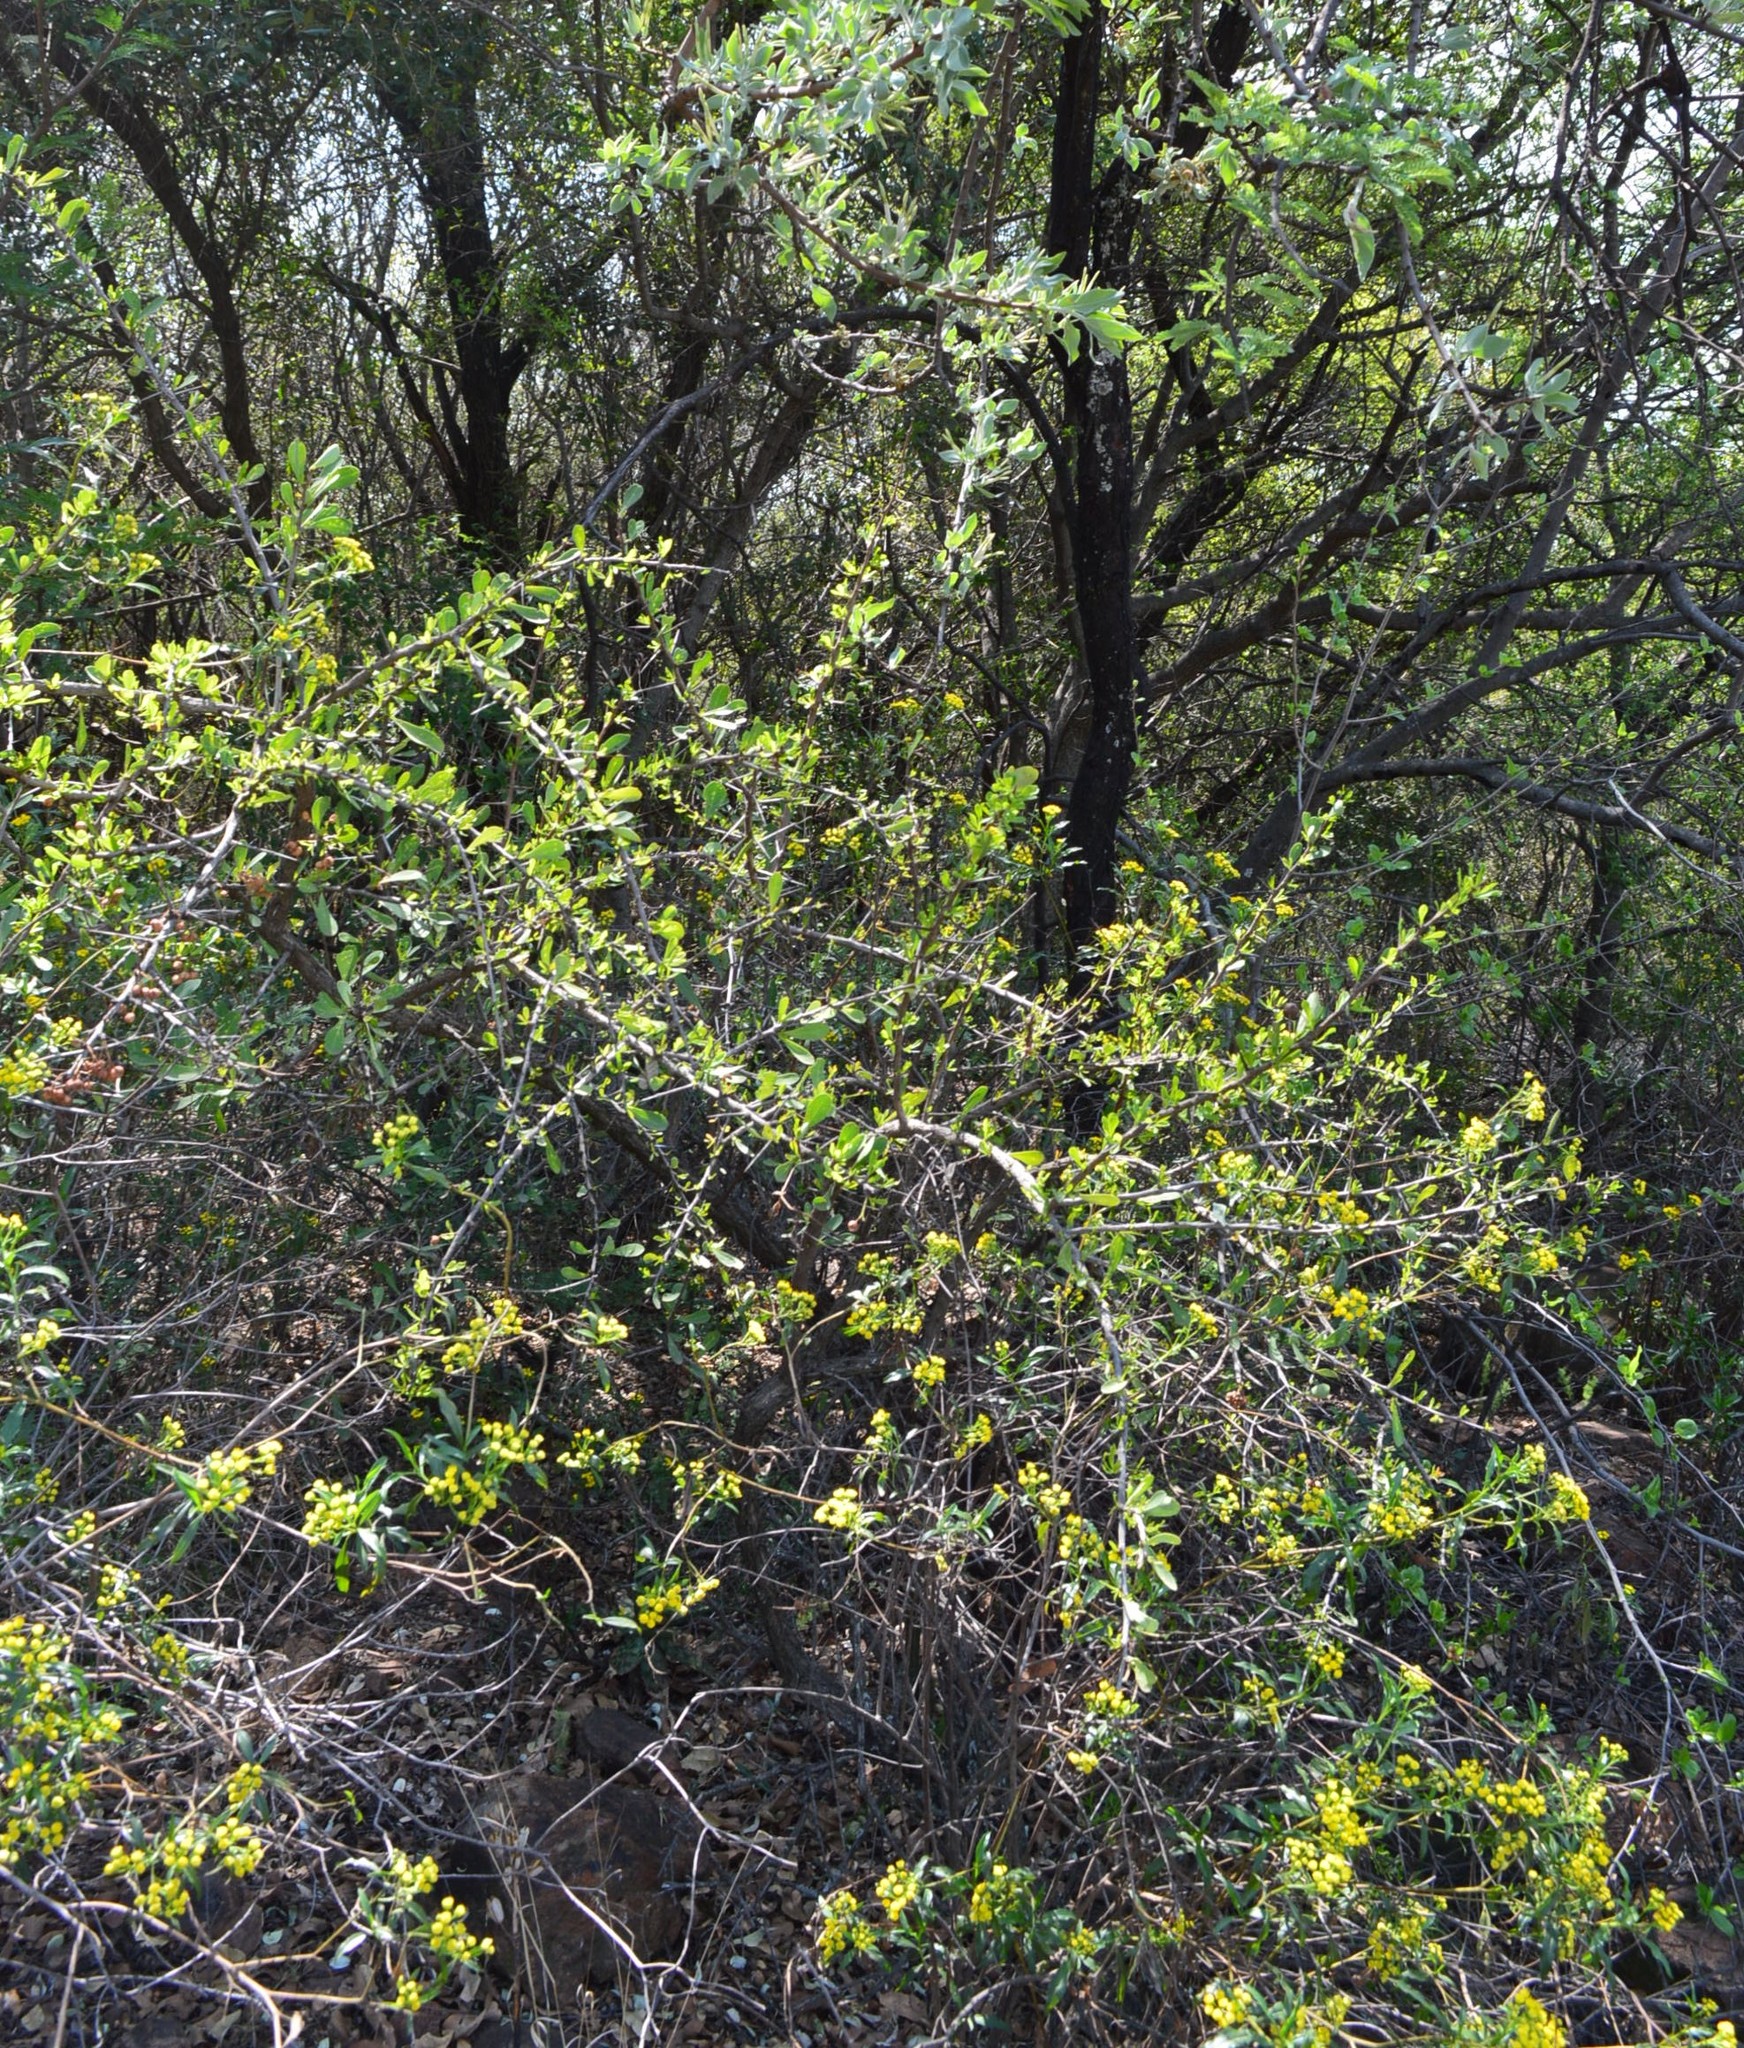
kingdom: Plantae
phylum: Tracheophyta
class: Magnoliopsida
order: Celastrales
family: Celastraceae
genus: Gymnosporia
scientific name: Gymnosporia glaucophylla
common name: Blue spike-thorn
